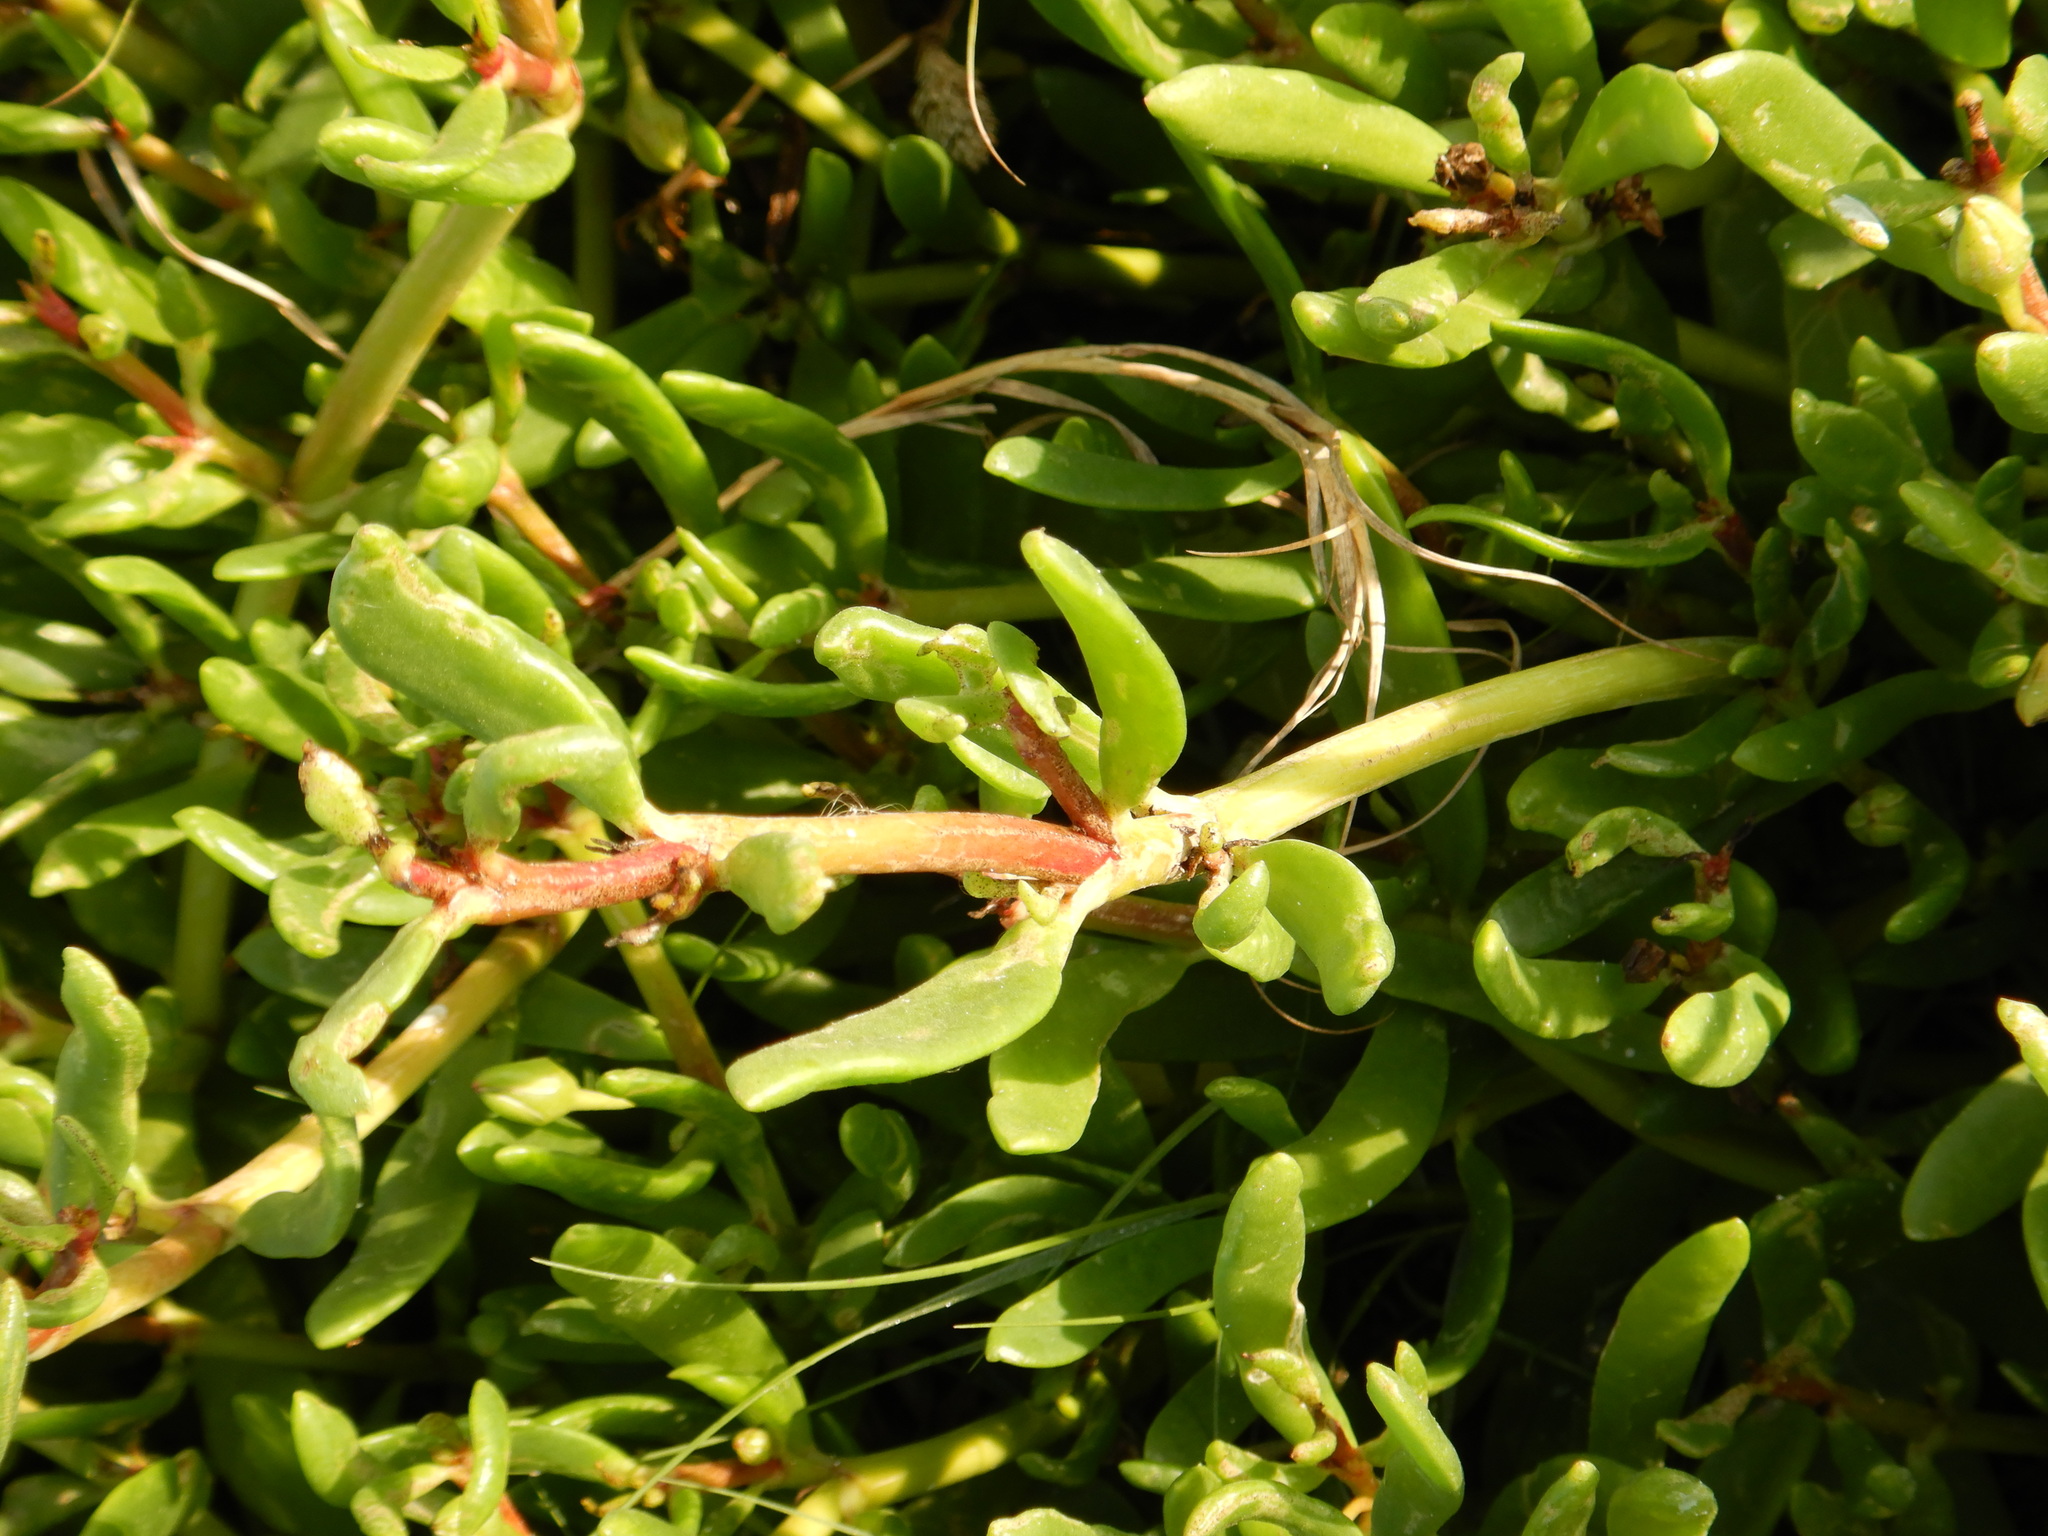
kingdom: Plantae
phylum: Tracheophyta
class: Magnoliopsida
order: Caryophyllales
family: Amaranthaceae
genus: Gomphrena
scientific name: Gomphrena vermicularis
